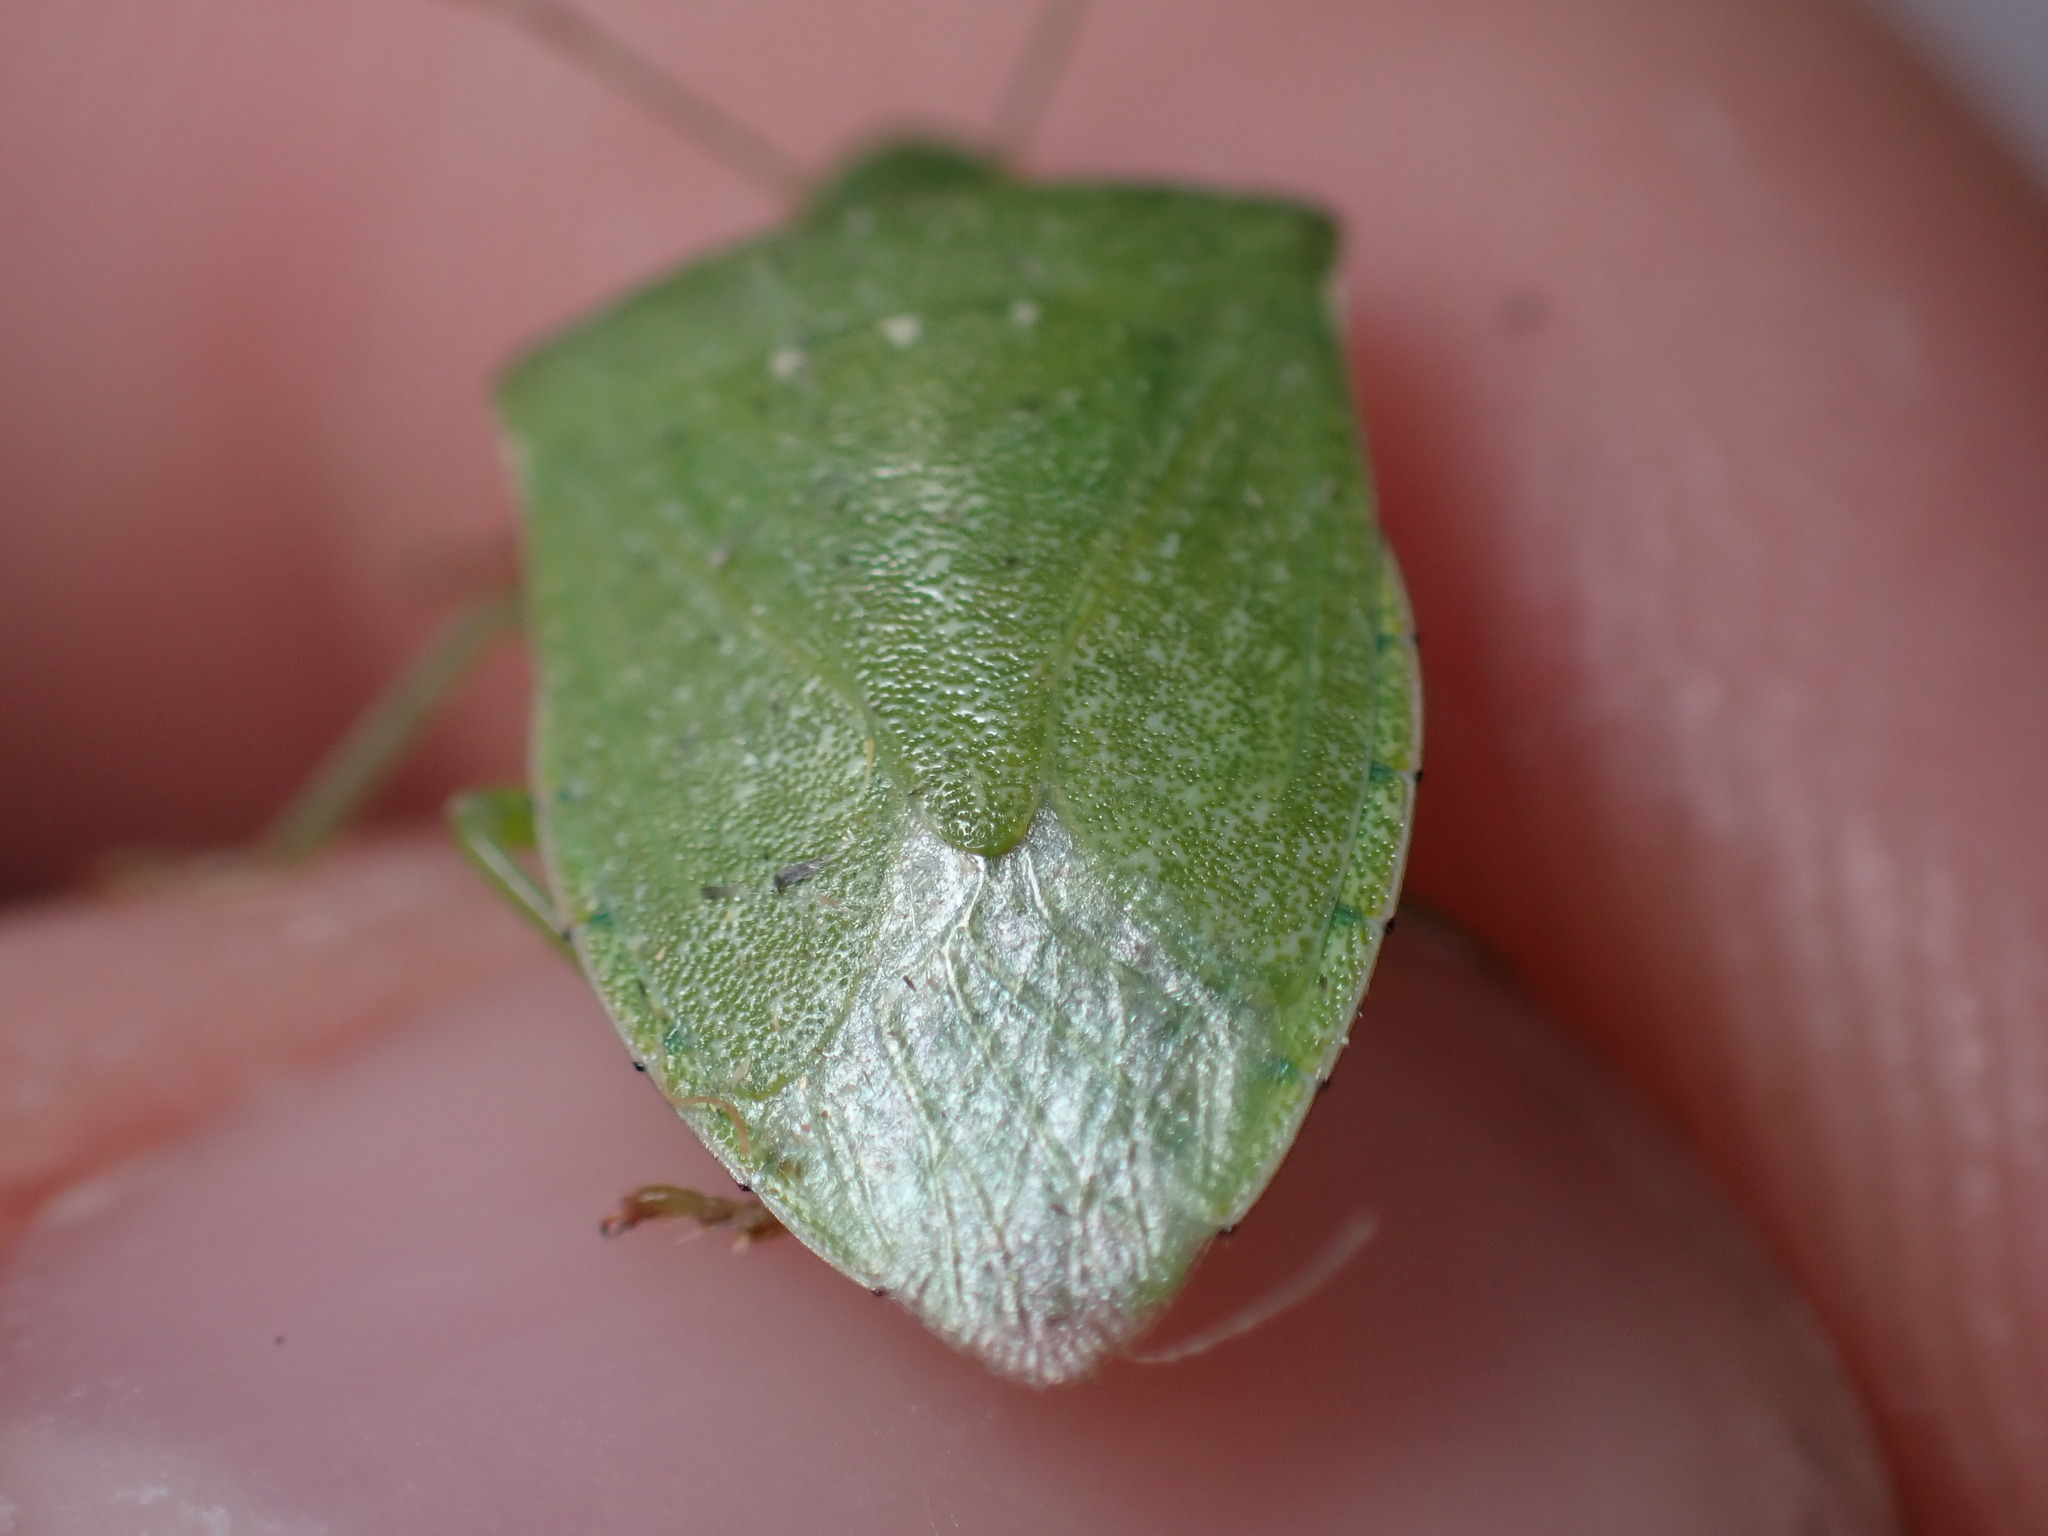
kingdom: Animalia
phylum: Arthropoda
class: Insecta
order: Hemiptera
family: Pentatomidae
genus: Nezara
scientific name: Nezara viridula
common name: Southern green stink bug
